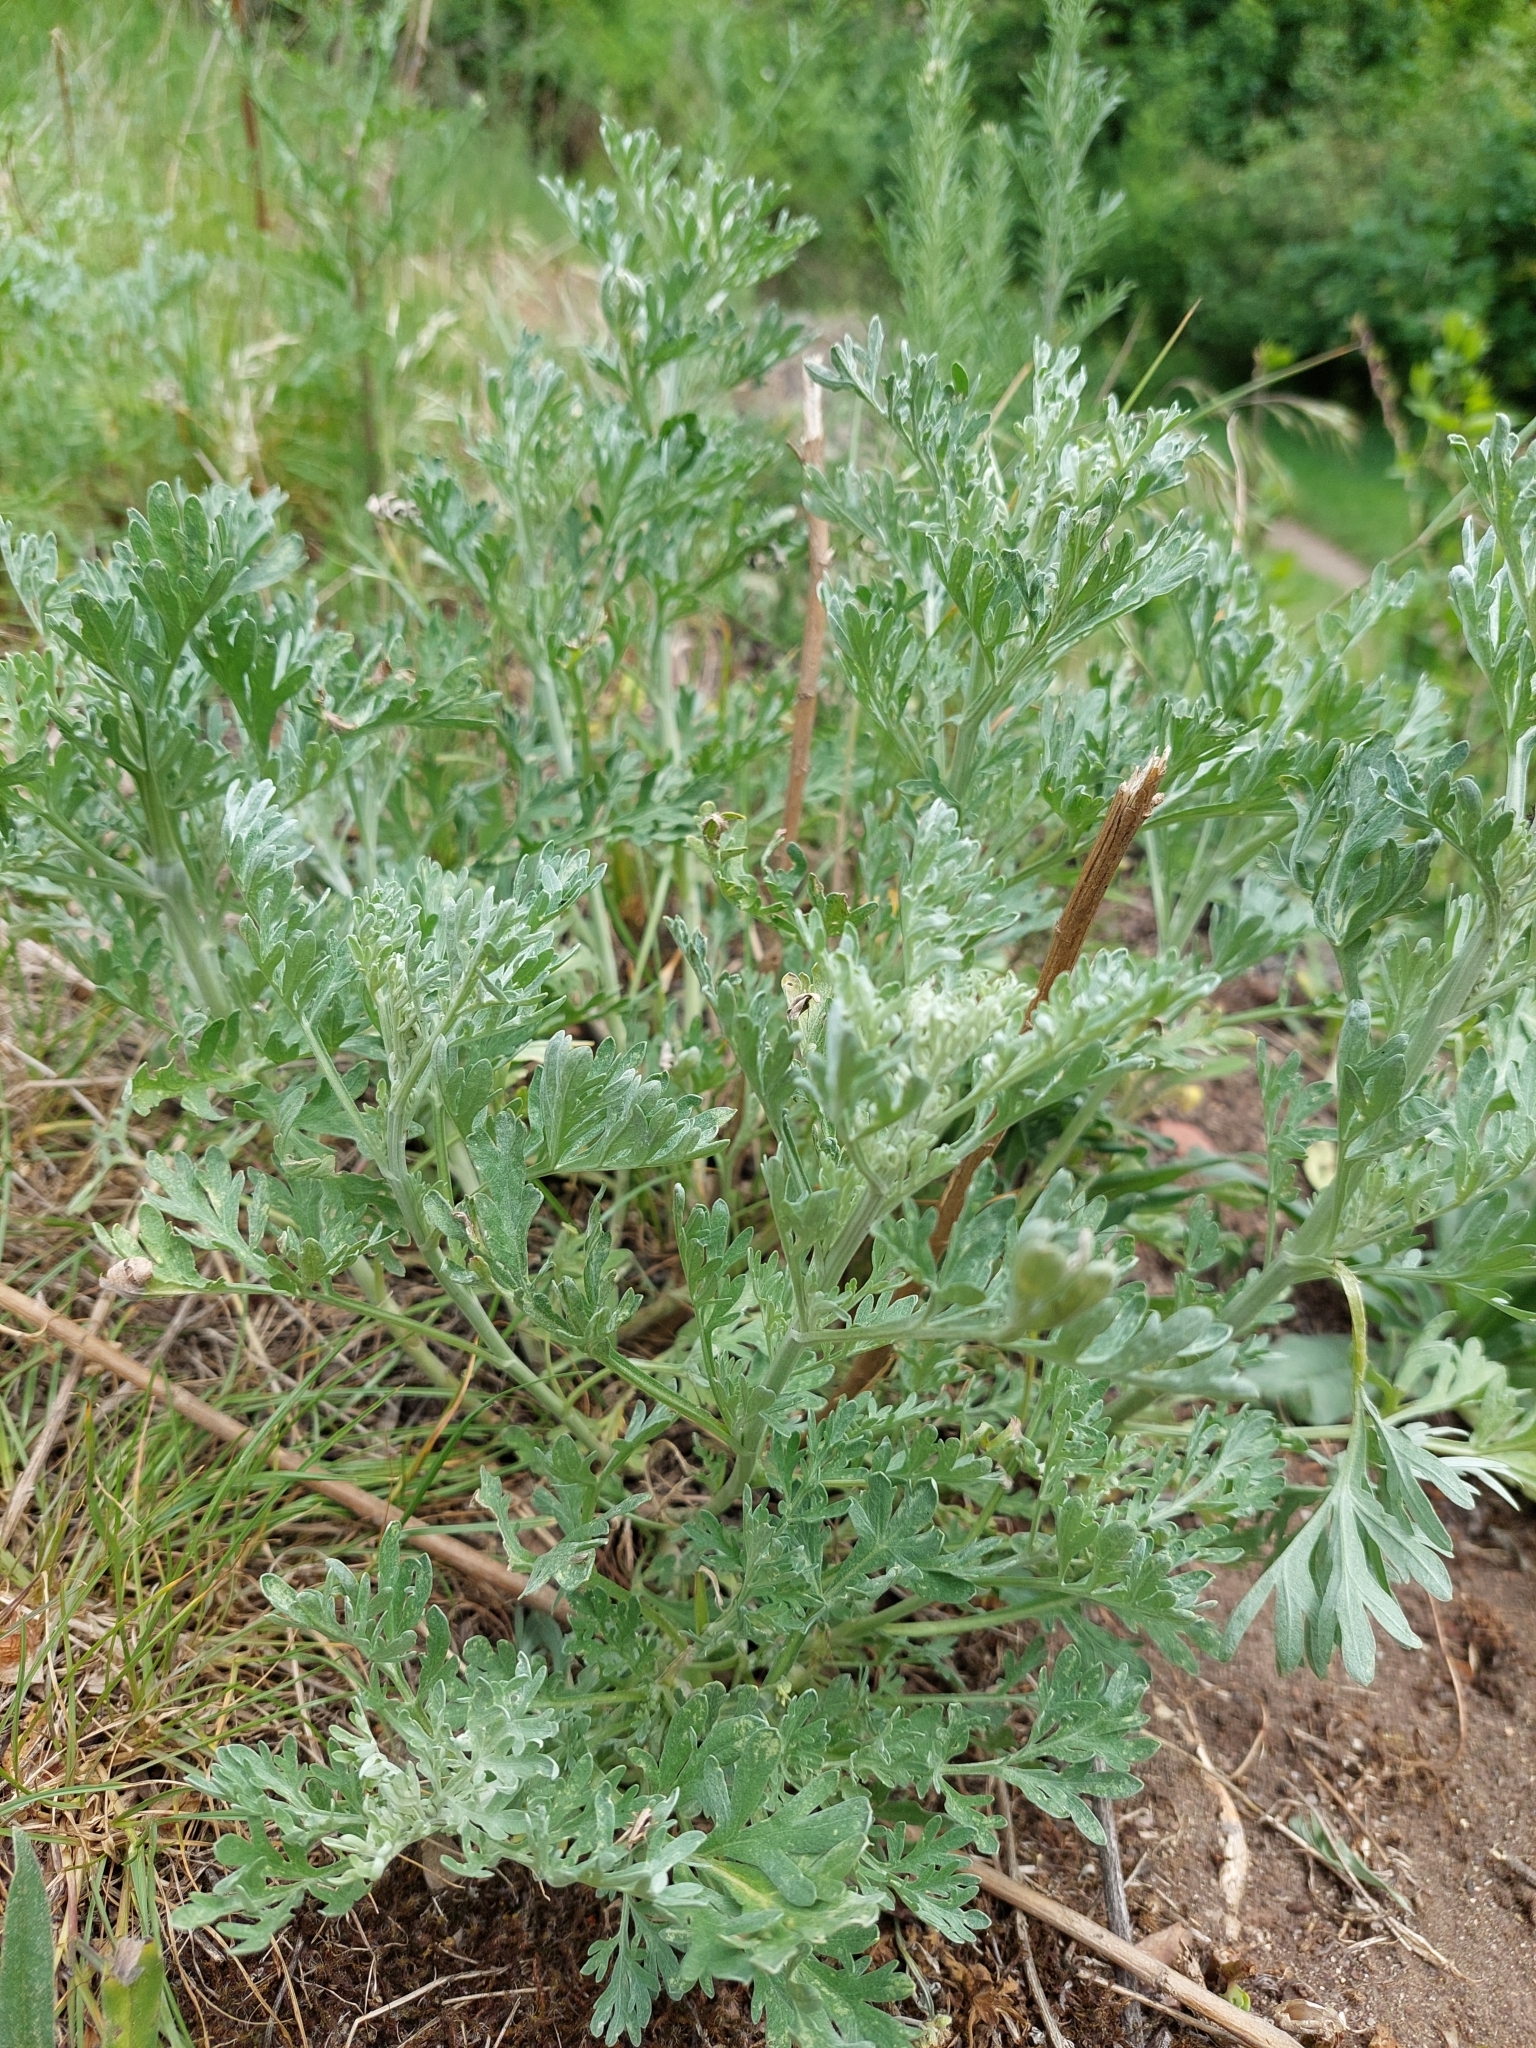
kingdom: Plantae
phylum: Tracheophyta
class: Magnoliopsida
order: Asterales
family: Asteraceae
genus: Artemisia
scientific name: Artemisia absinthium
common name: Wormwood
